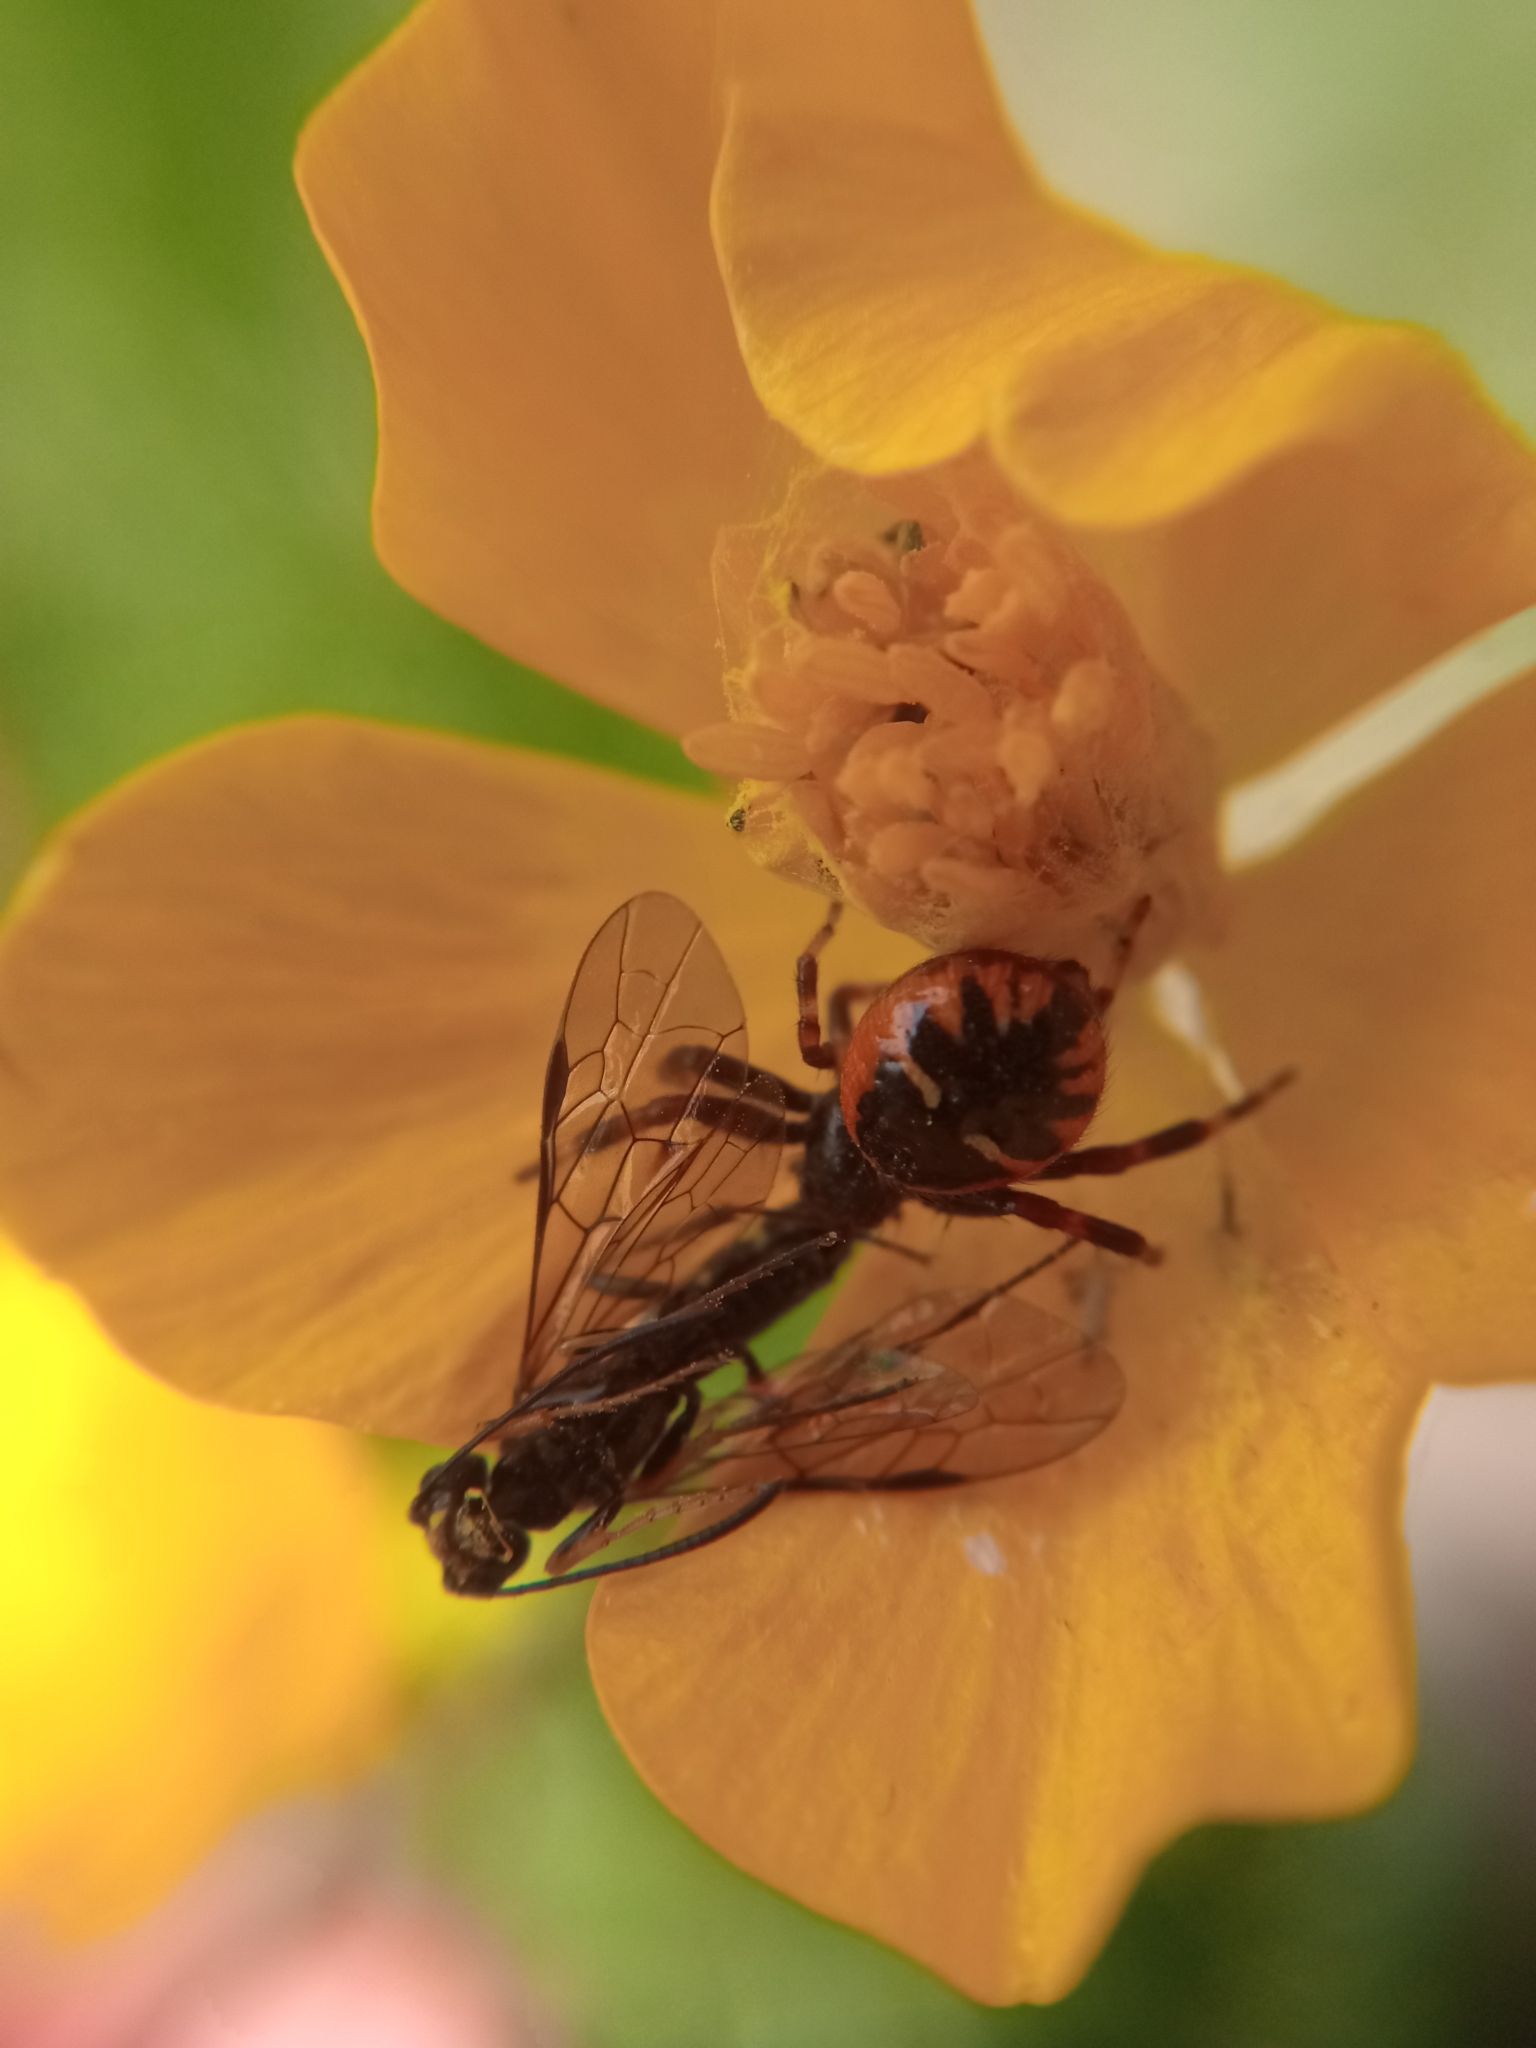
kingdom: Animalia
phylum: Arthropoda
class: Arachnida
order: Araneae
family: Thomisidae
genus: Synema
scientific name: Synema globosum
